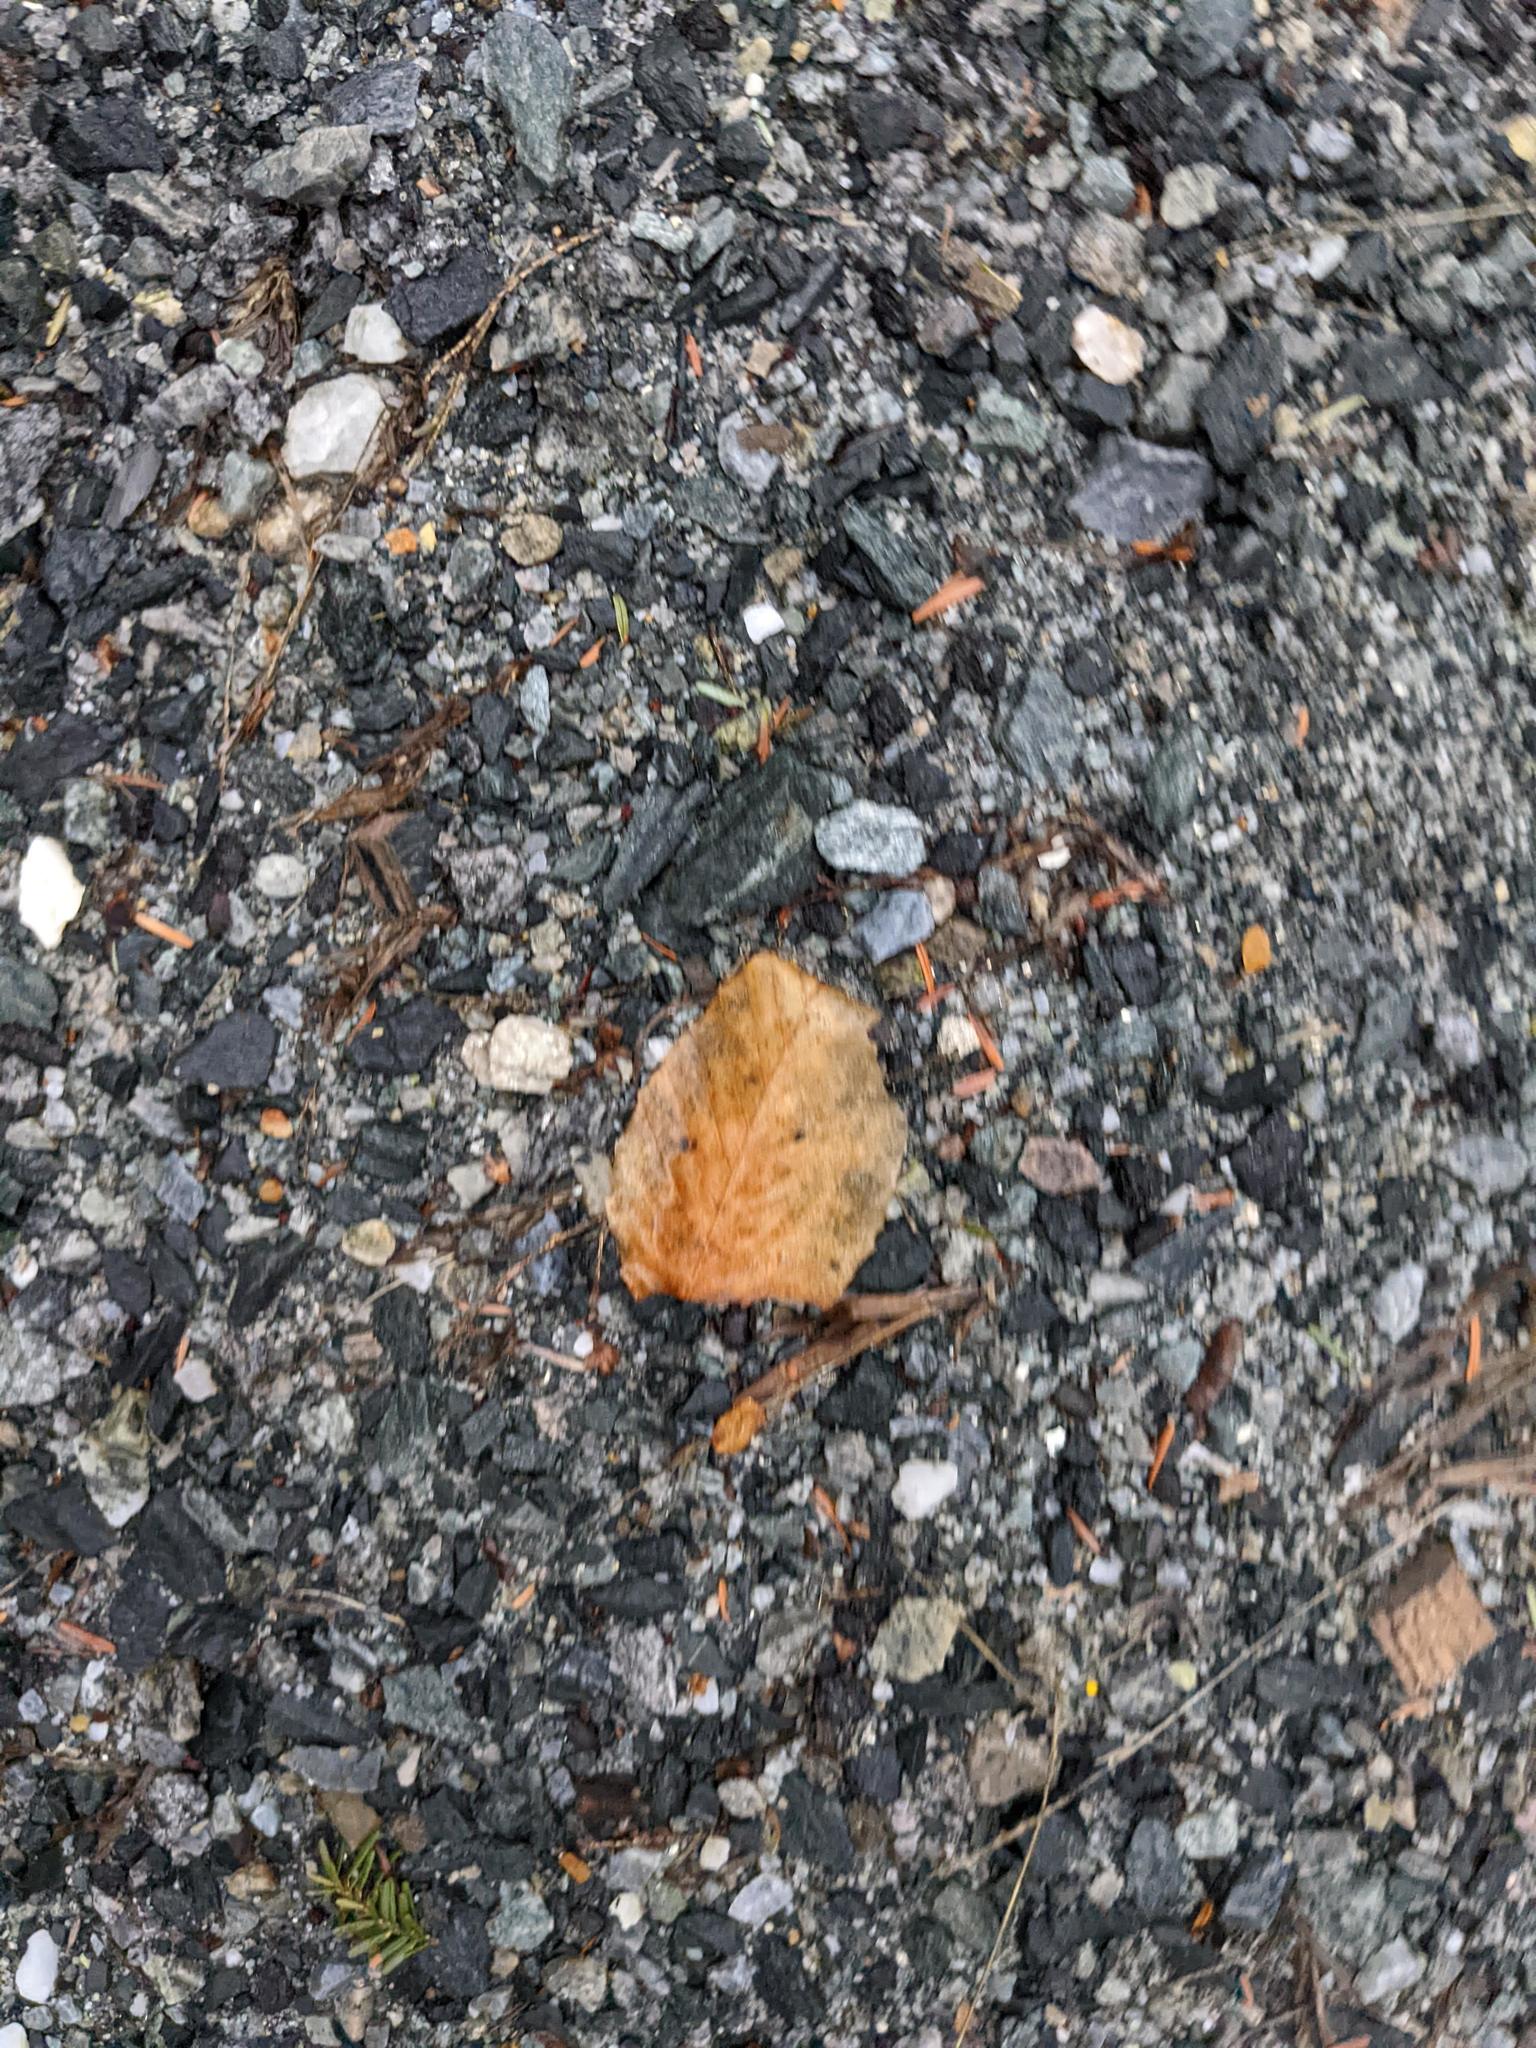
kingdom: Plantae
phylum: Tracheophyta
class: Magnoliopsida
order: Fagales
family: Fagaceae
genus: Fagus
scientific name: Fagus grandifolia
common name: American beech
